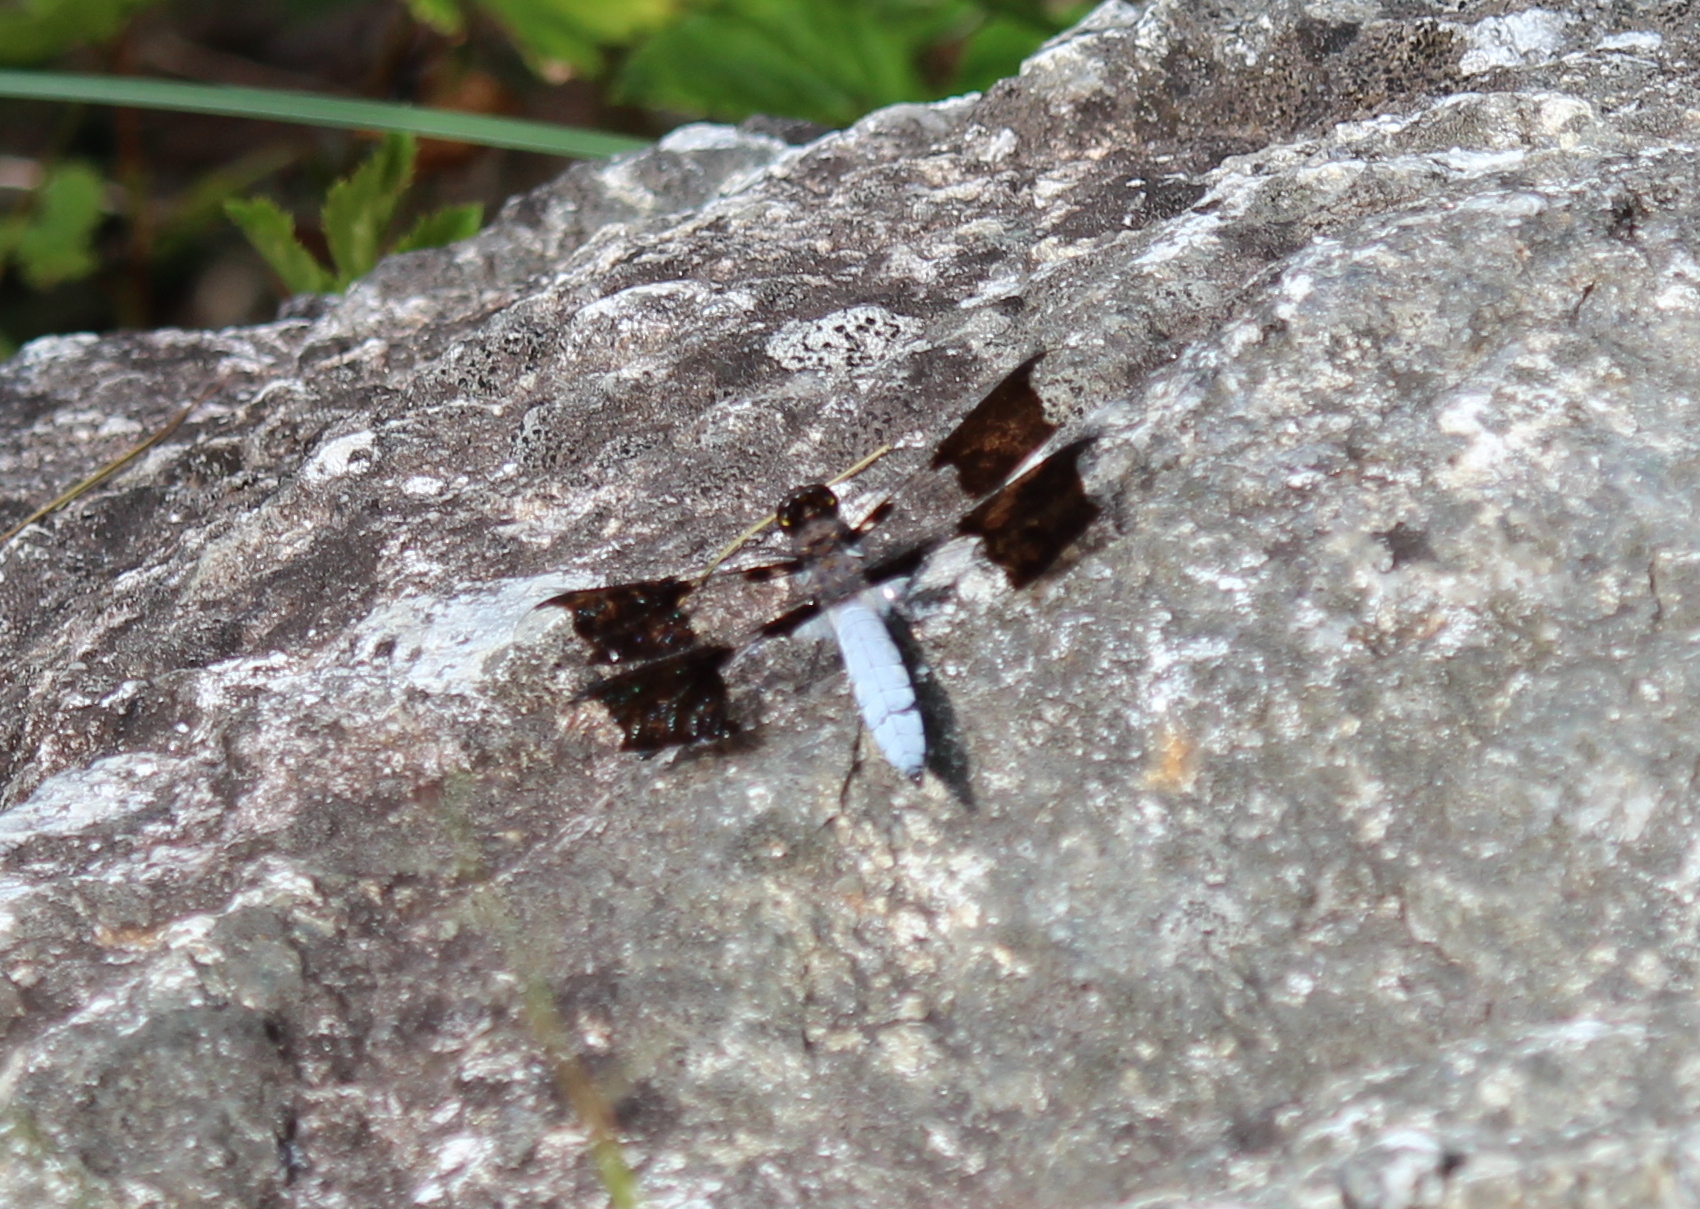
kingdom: Animalia
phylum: Arthropoda
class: Insecta
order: Odonata
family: Libellulidae
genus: Plathemis
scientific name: Plathemis lydia
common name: Common whitetail
